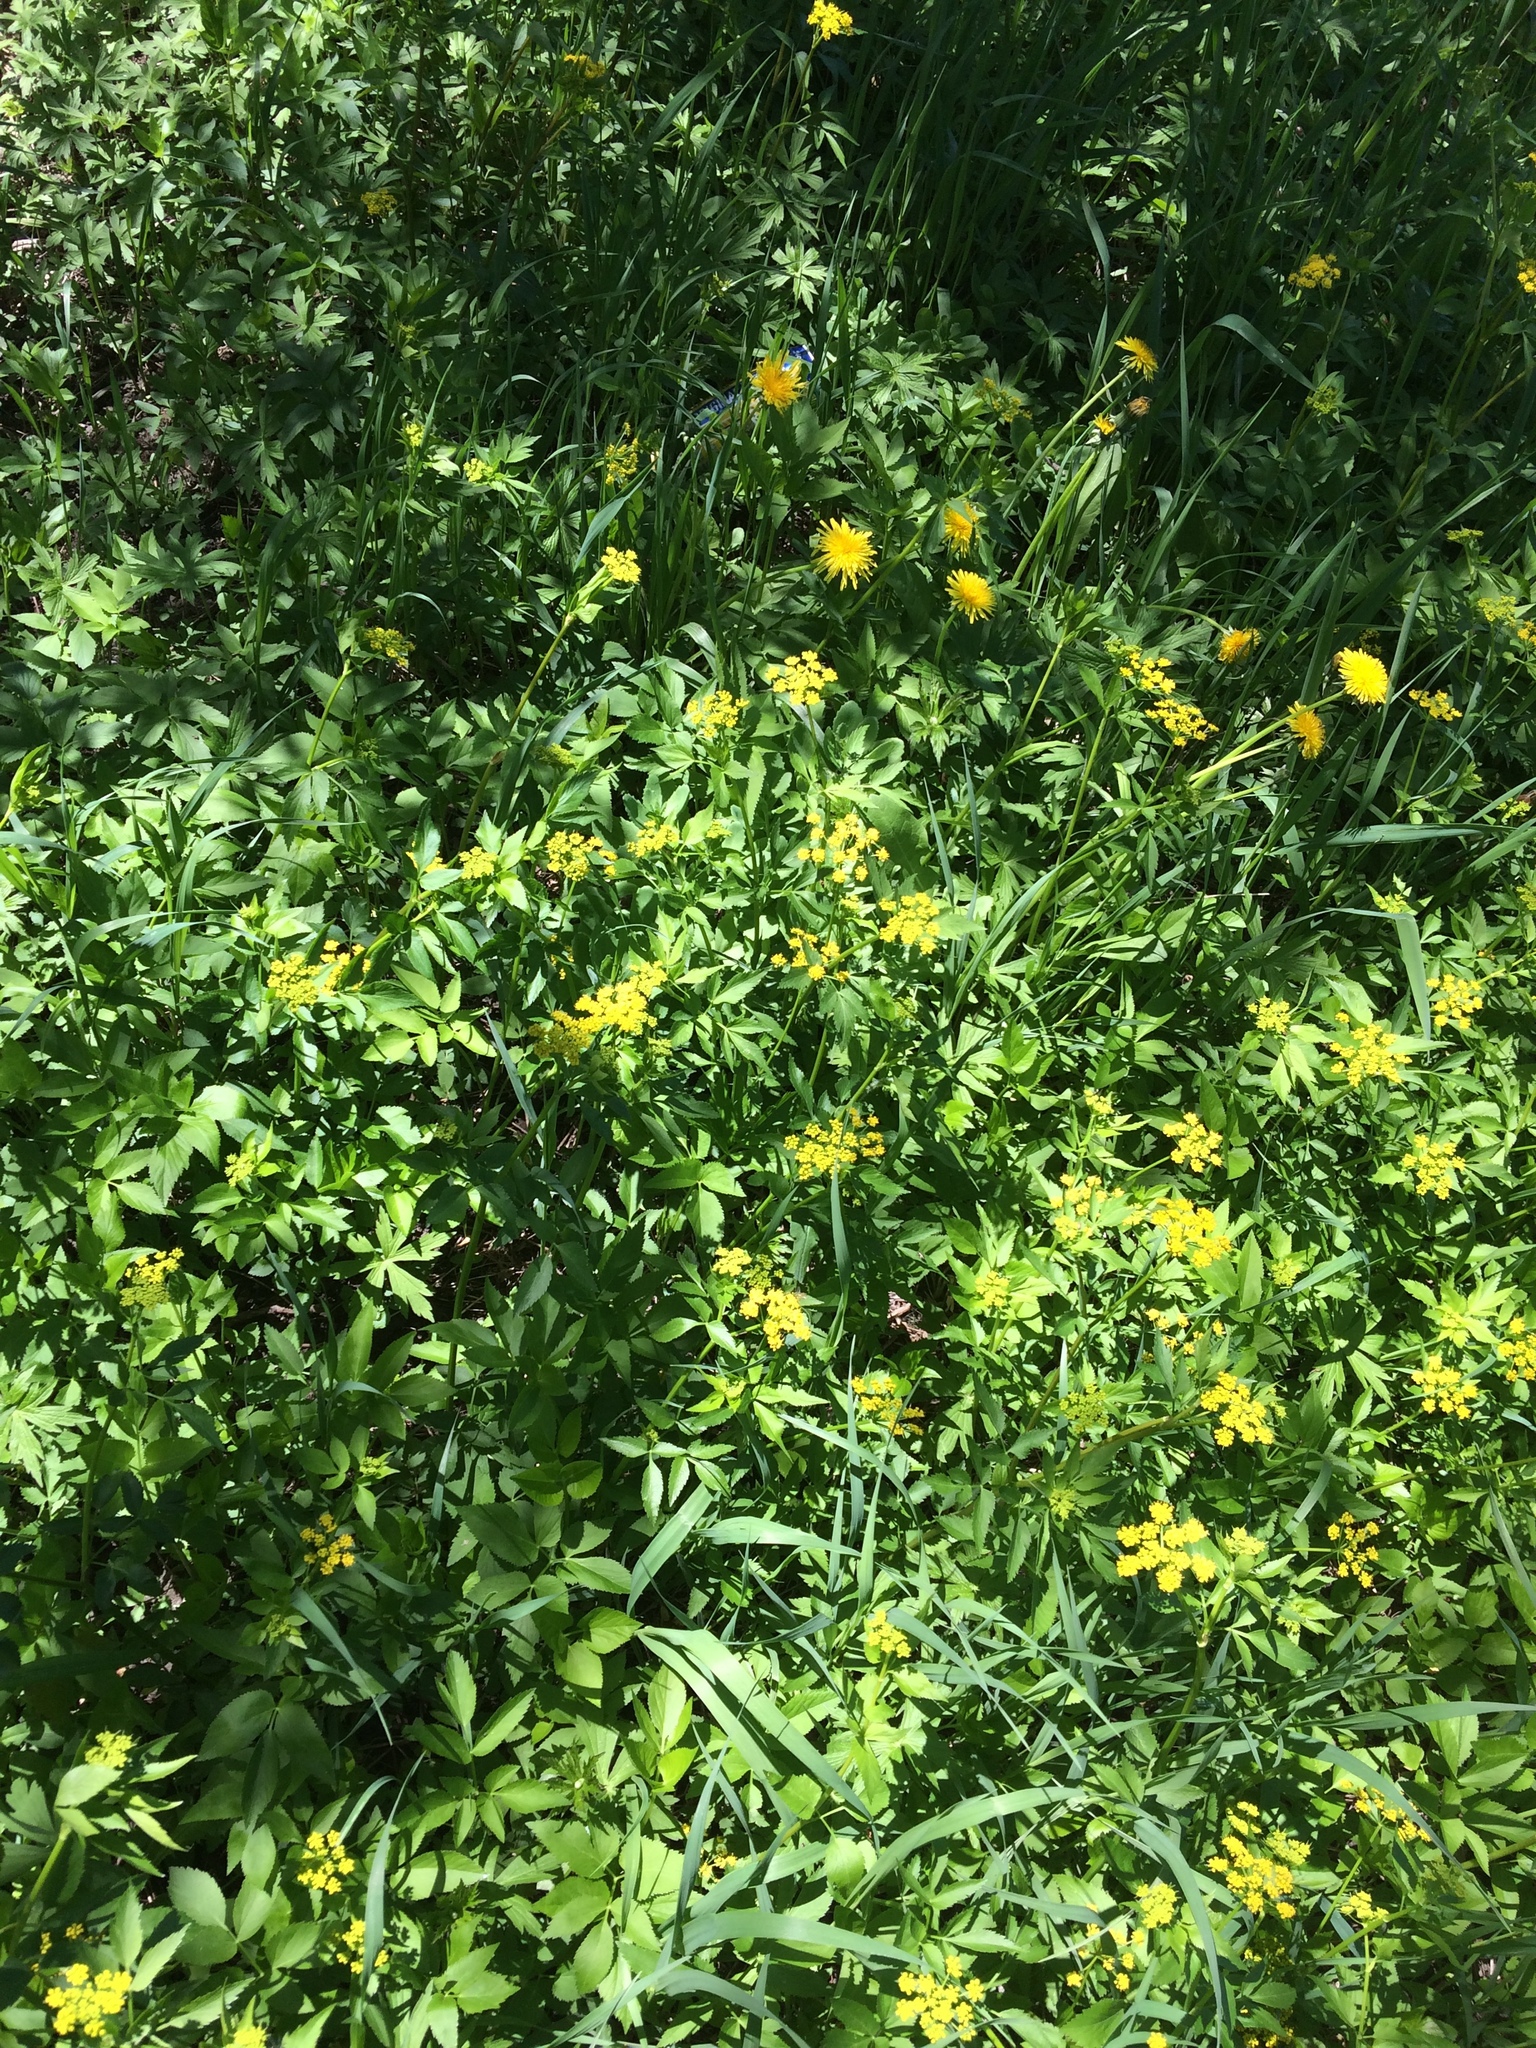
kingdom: Plantae
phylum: Tracheophyta
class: Magnoliopsida
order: Apiales
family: Apiaceae
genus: Zizia
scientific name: Zizia aurea
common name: Golden alexanders
